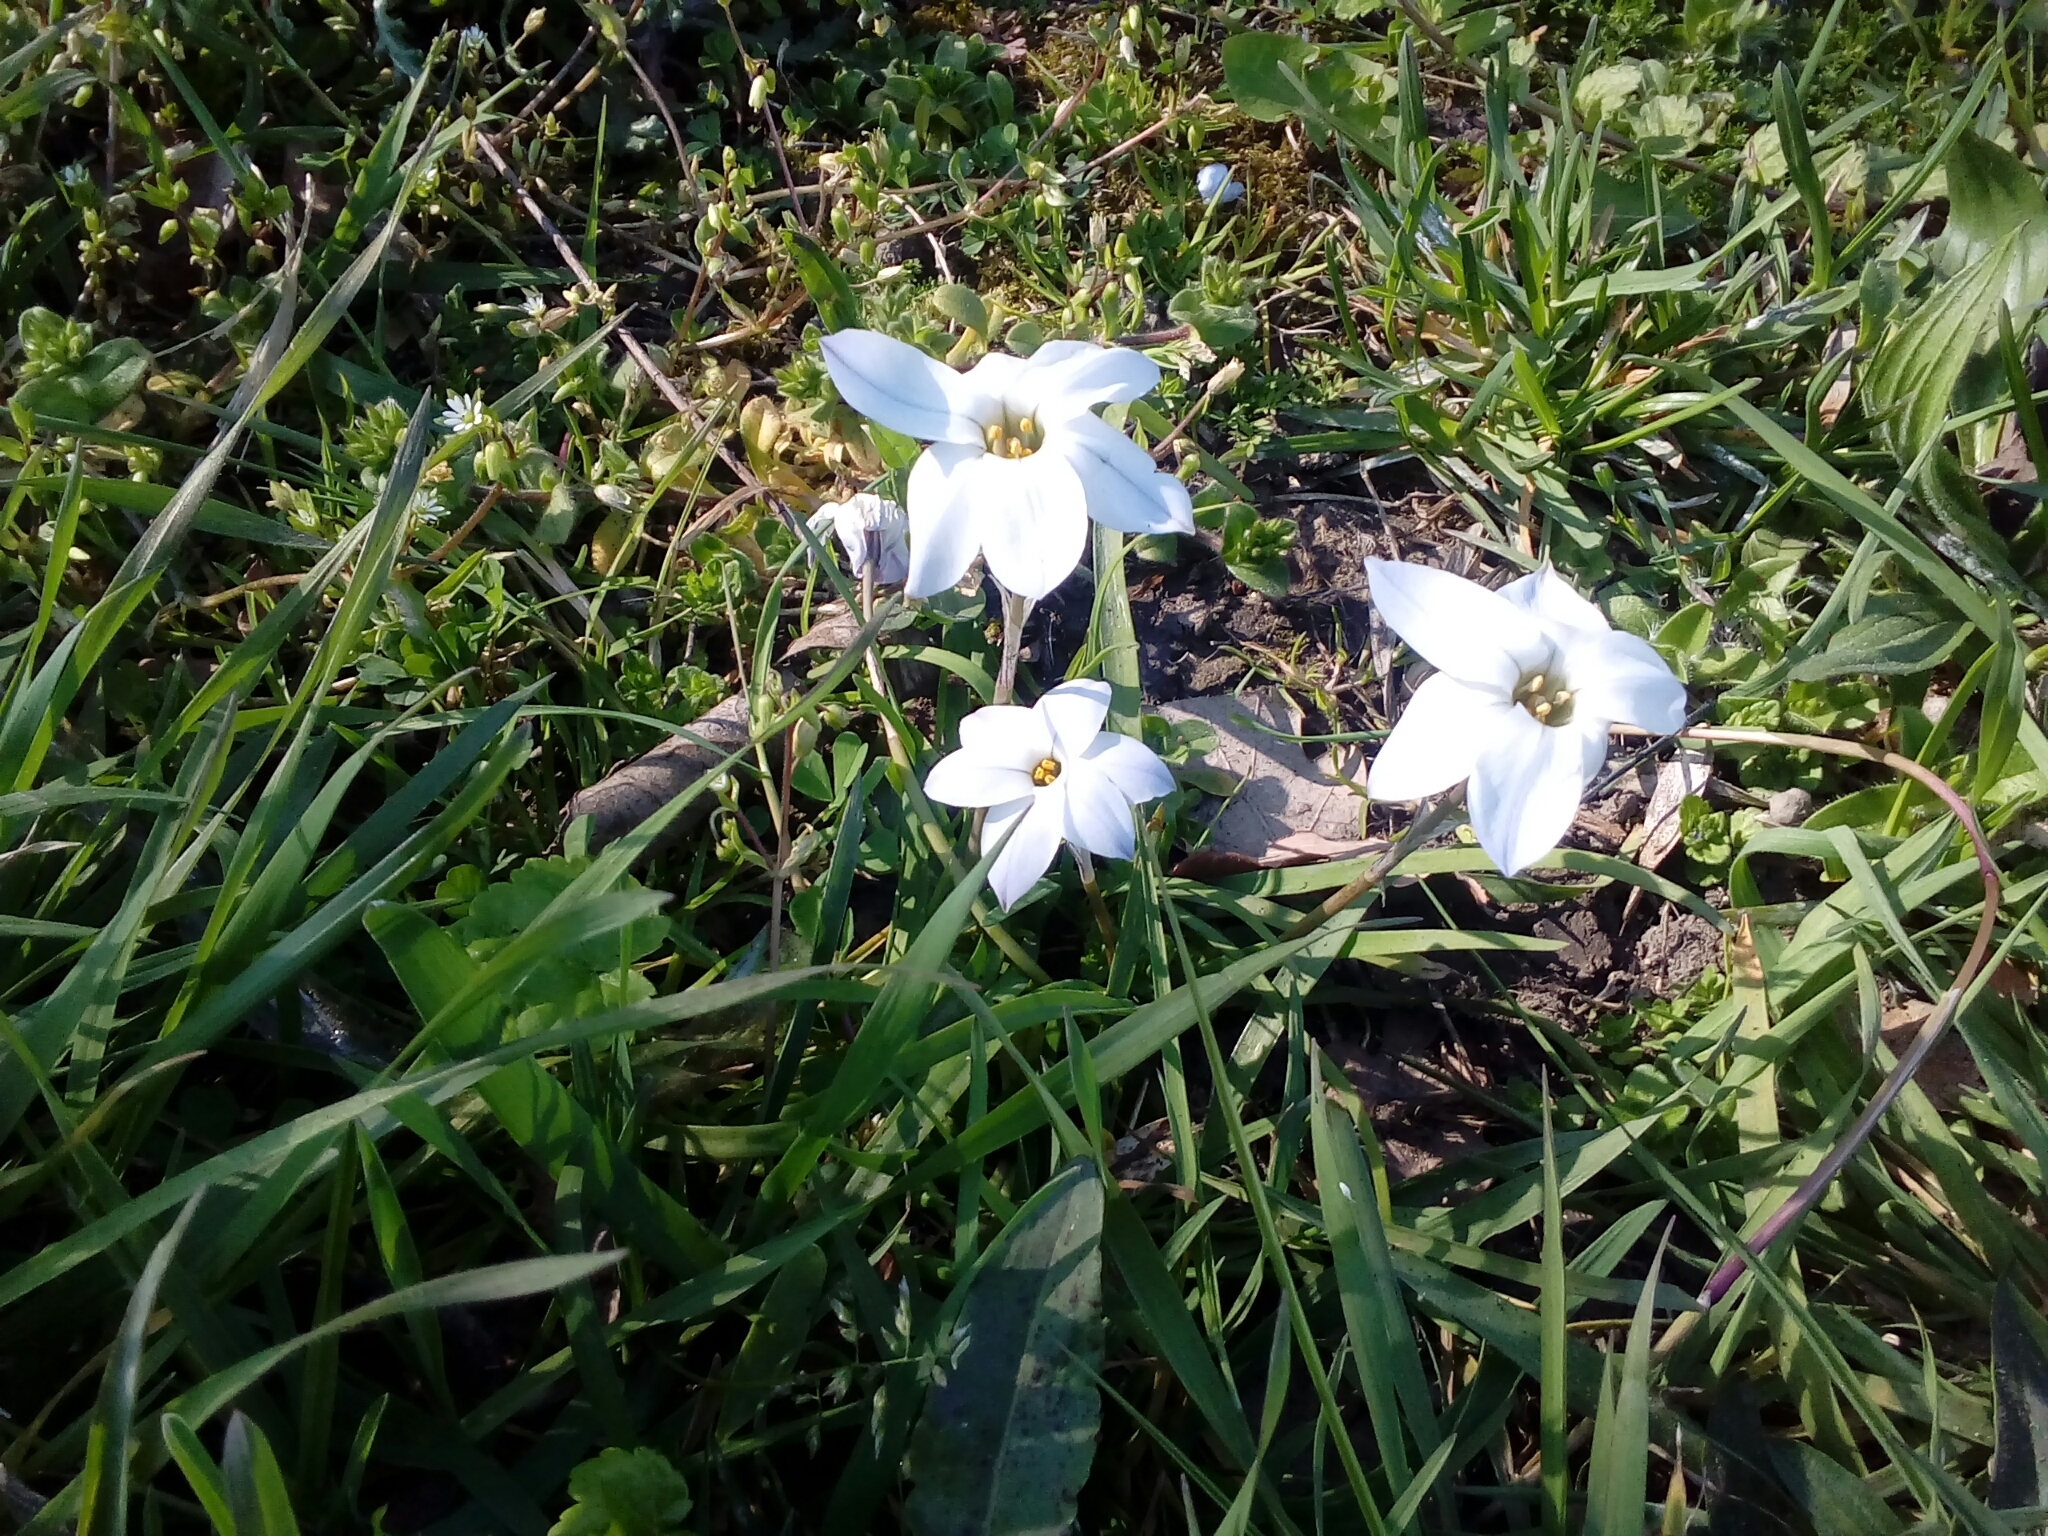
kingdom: Plantae
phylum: Tracheophyta
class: Liliopsida
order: Asparagales
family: Amaryllidaceae
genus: Ipheion
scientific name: Ipheion uniflorum
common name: Spring starflower
